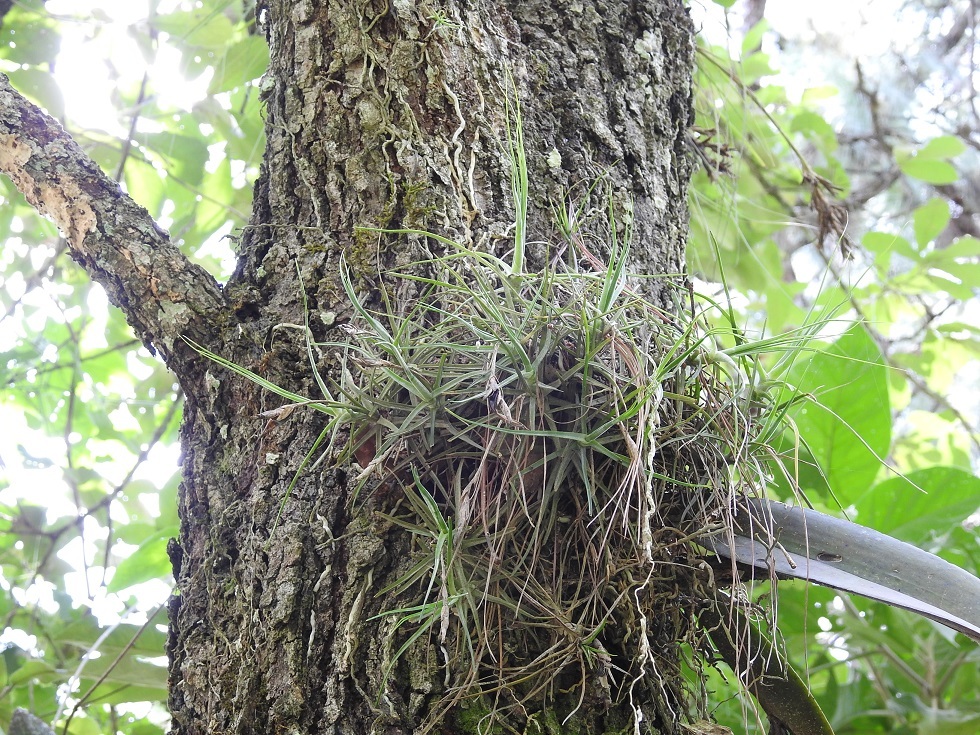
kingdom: Plantae
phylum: Tracheophyta
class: Liliopsida
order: Poales
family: Bromeliaceae
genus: Tillandsia
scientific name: Tillandsia schiedeana
